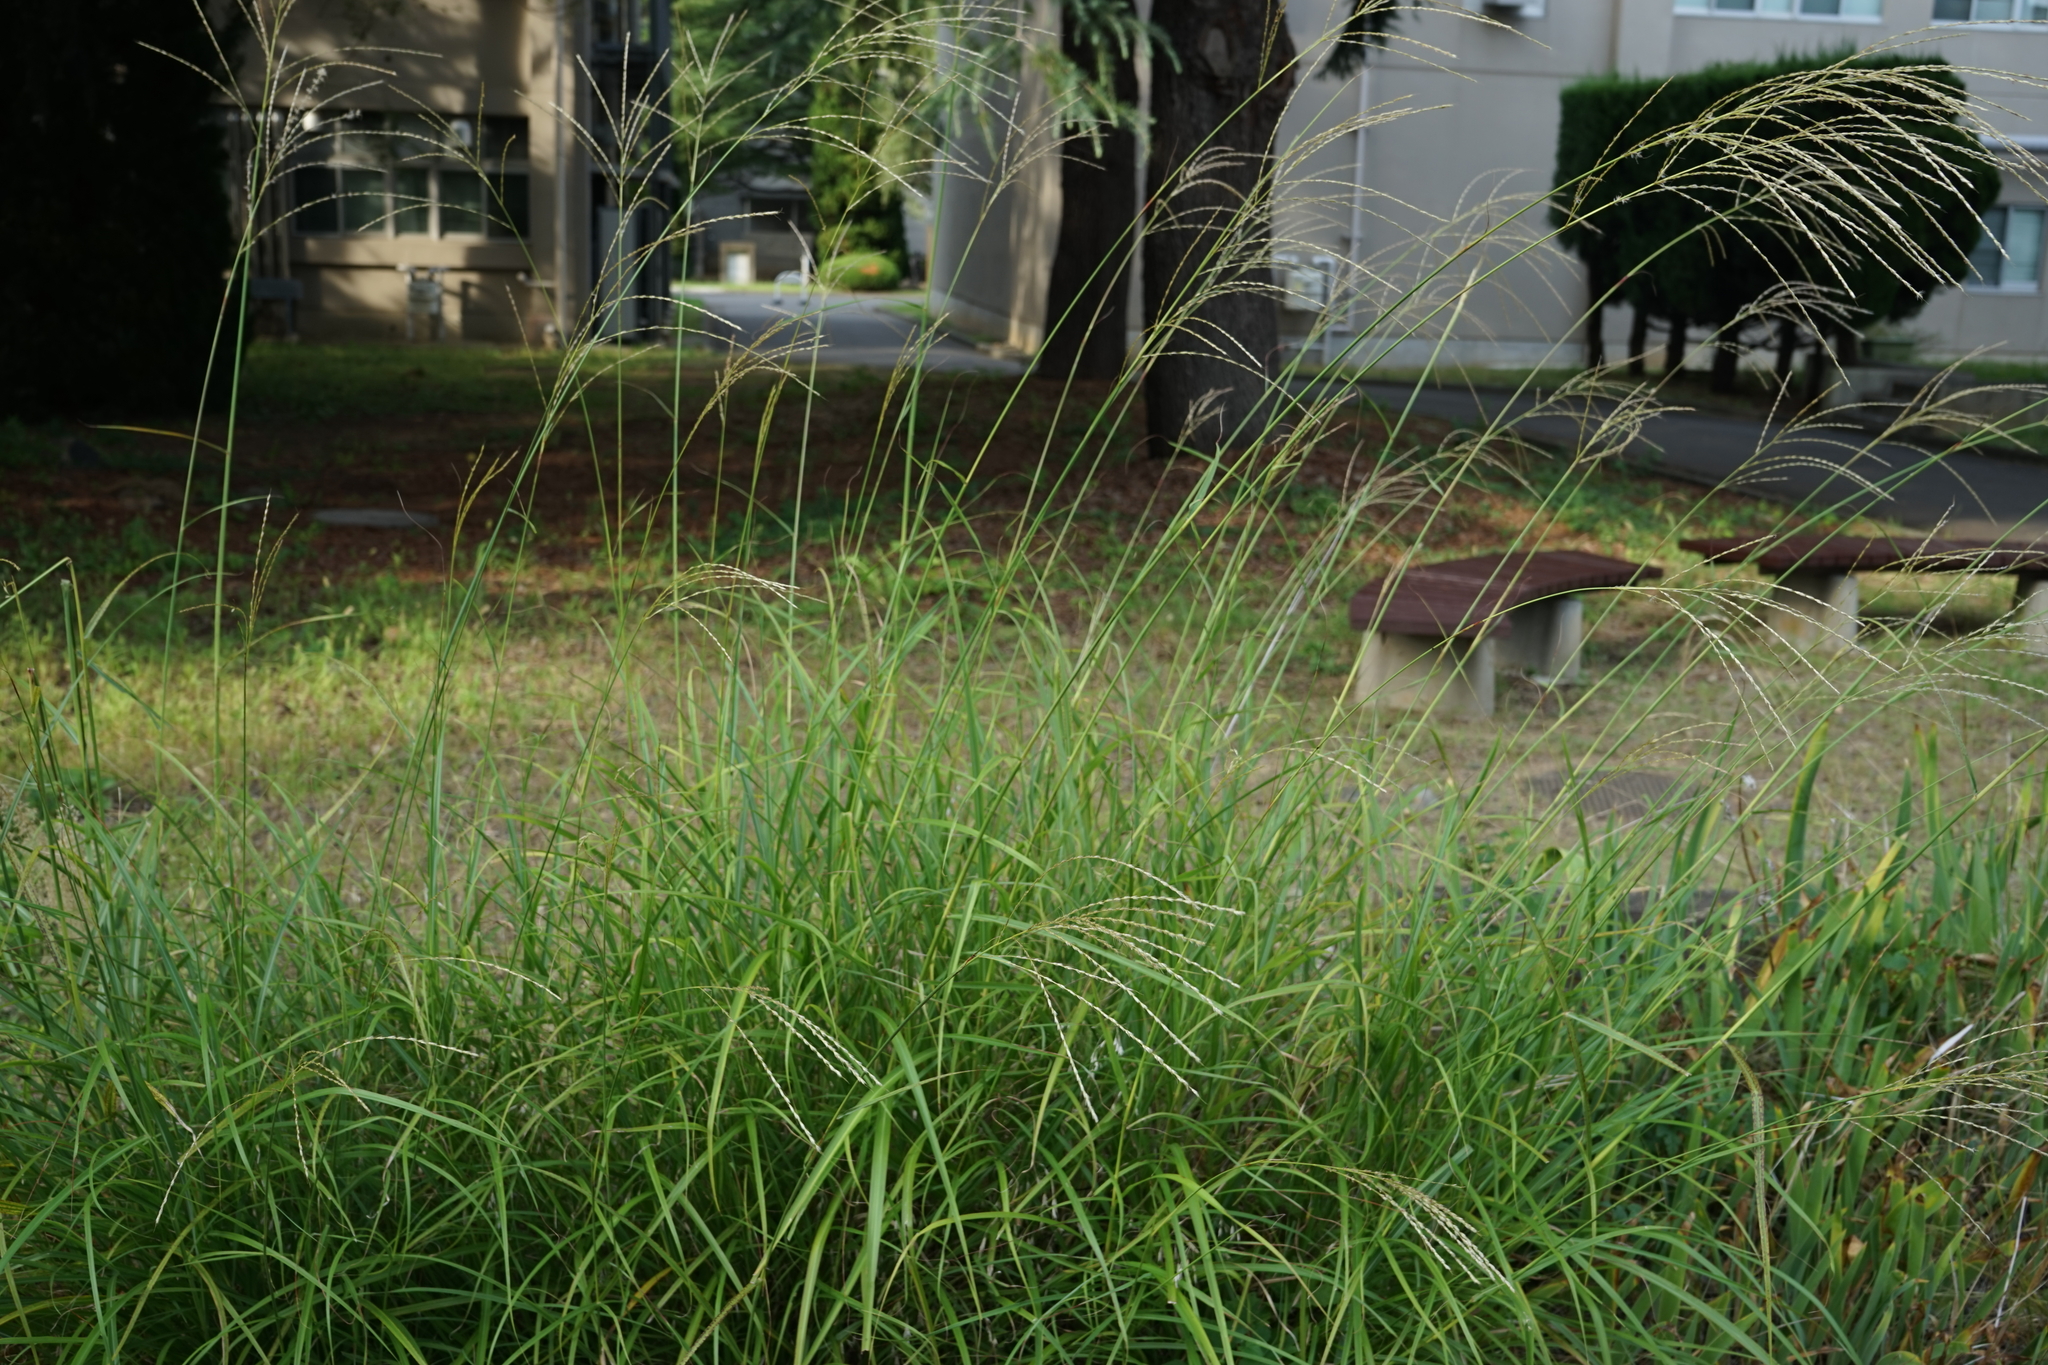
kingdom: Plantae
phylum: Tracheophyta
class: Liliopsida
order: Poales
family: Poaceae
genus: Miscanthus
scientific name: Miscanthus sinensis
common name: Chinese silvergrass
